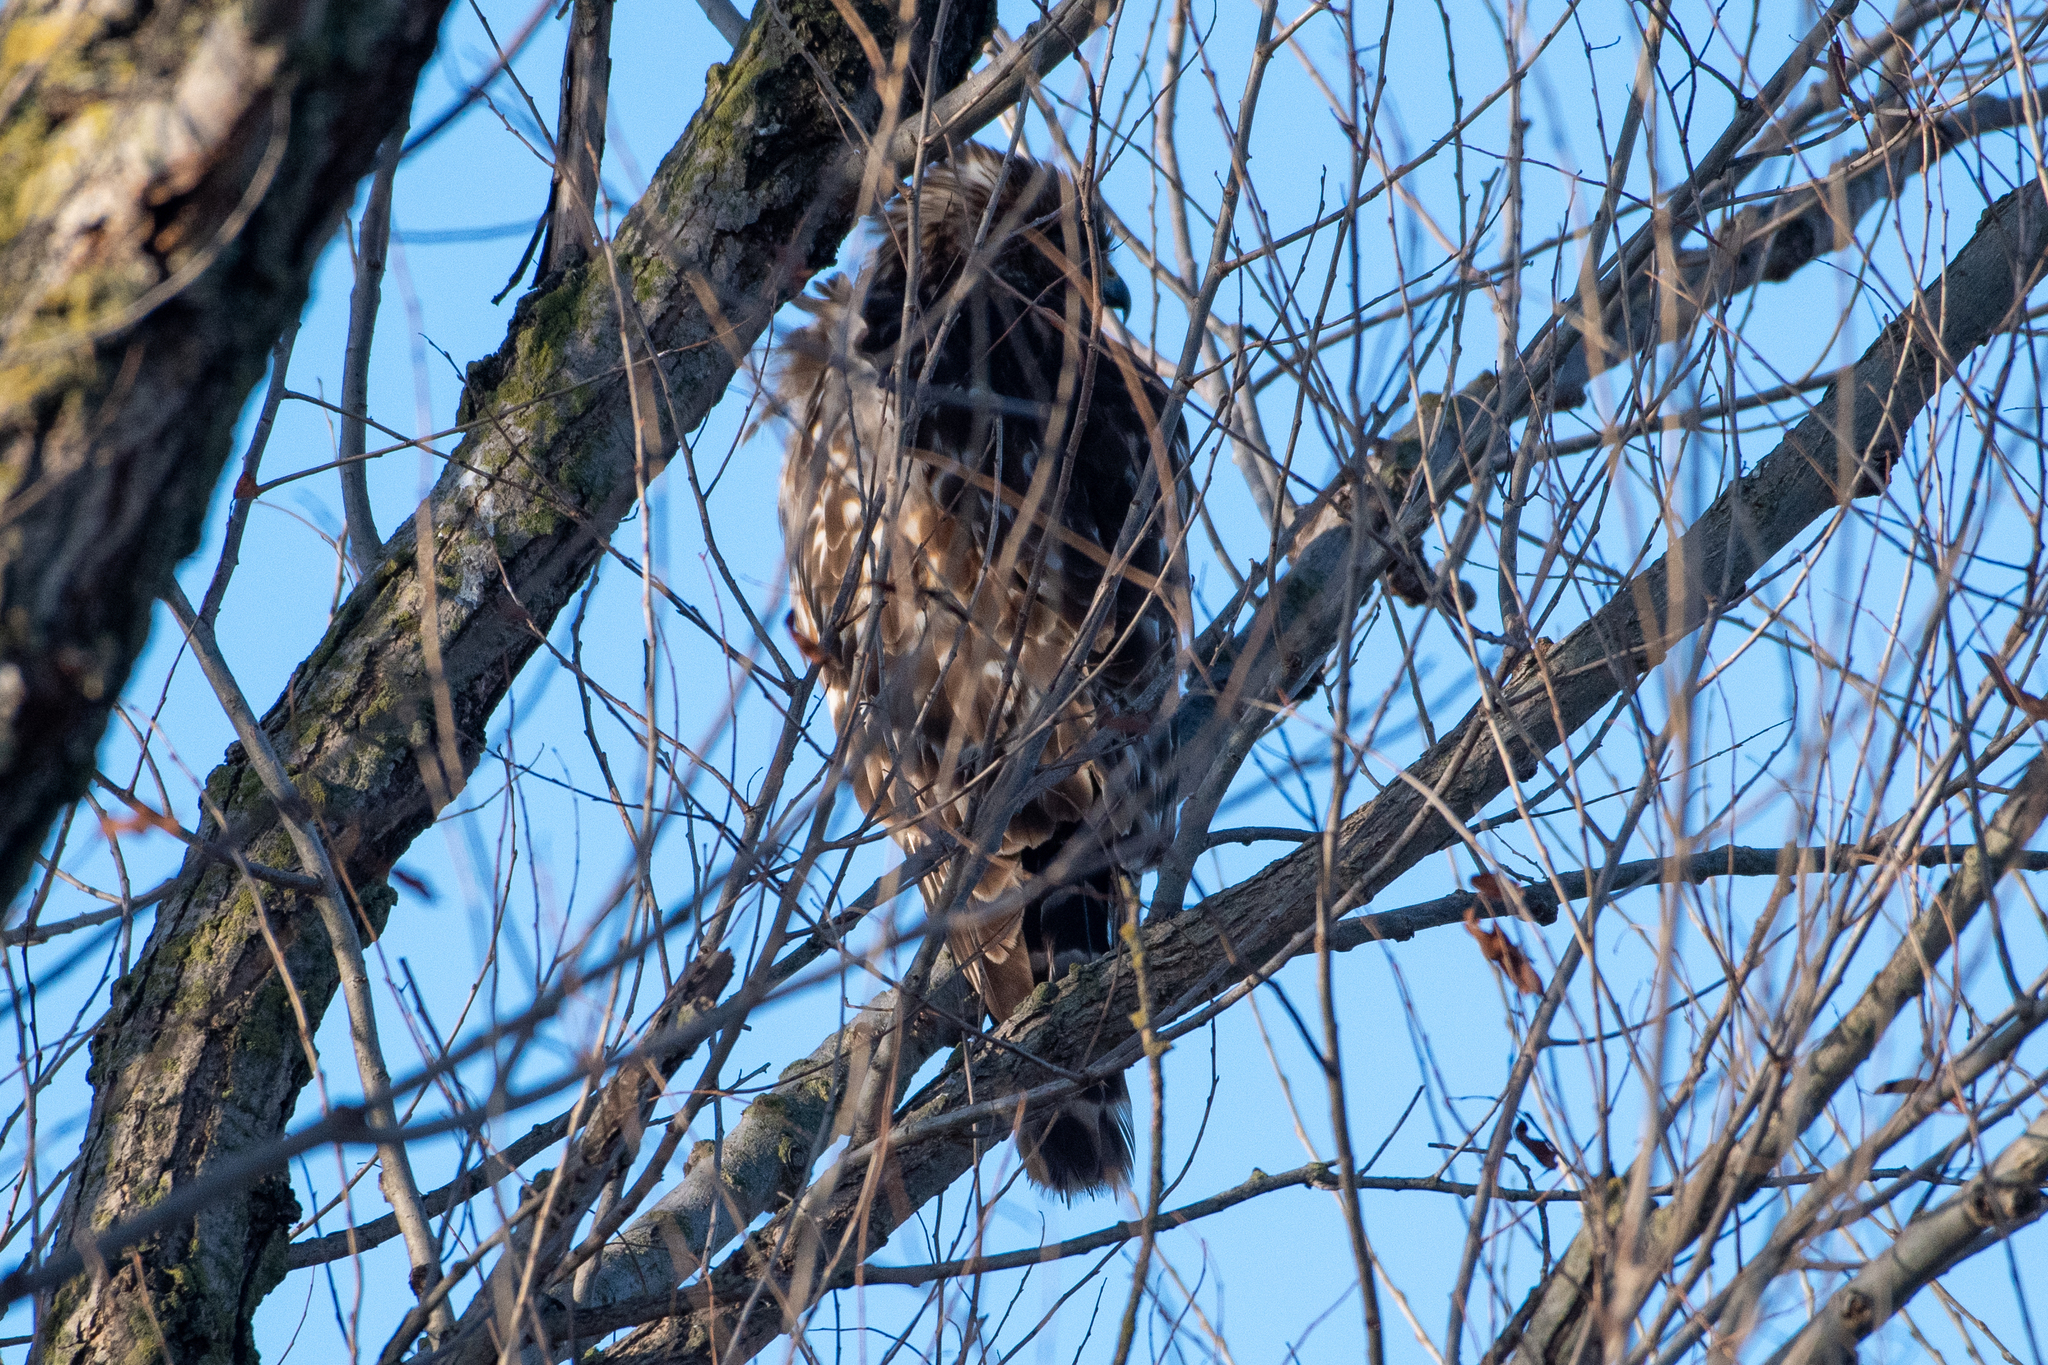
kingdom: Animalia
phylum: Chordata
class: Aves
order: Accipitriformes
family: Accipitridae
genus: Buteo
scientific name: Buteo lineatus
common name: Red-shouldered hawk
